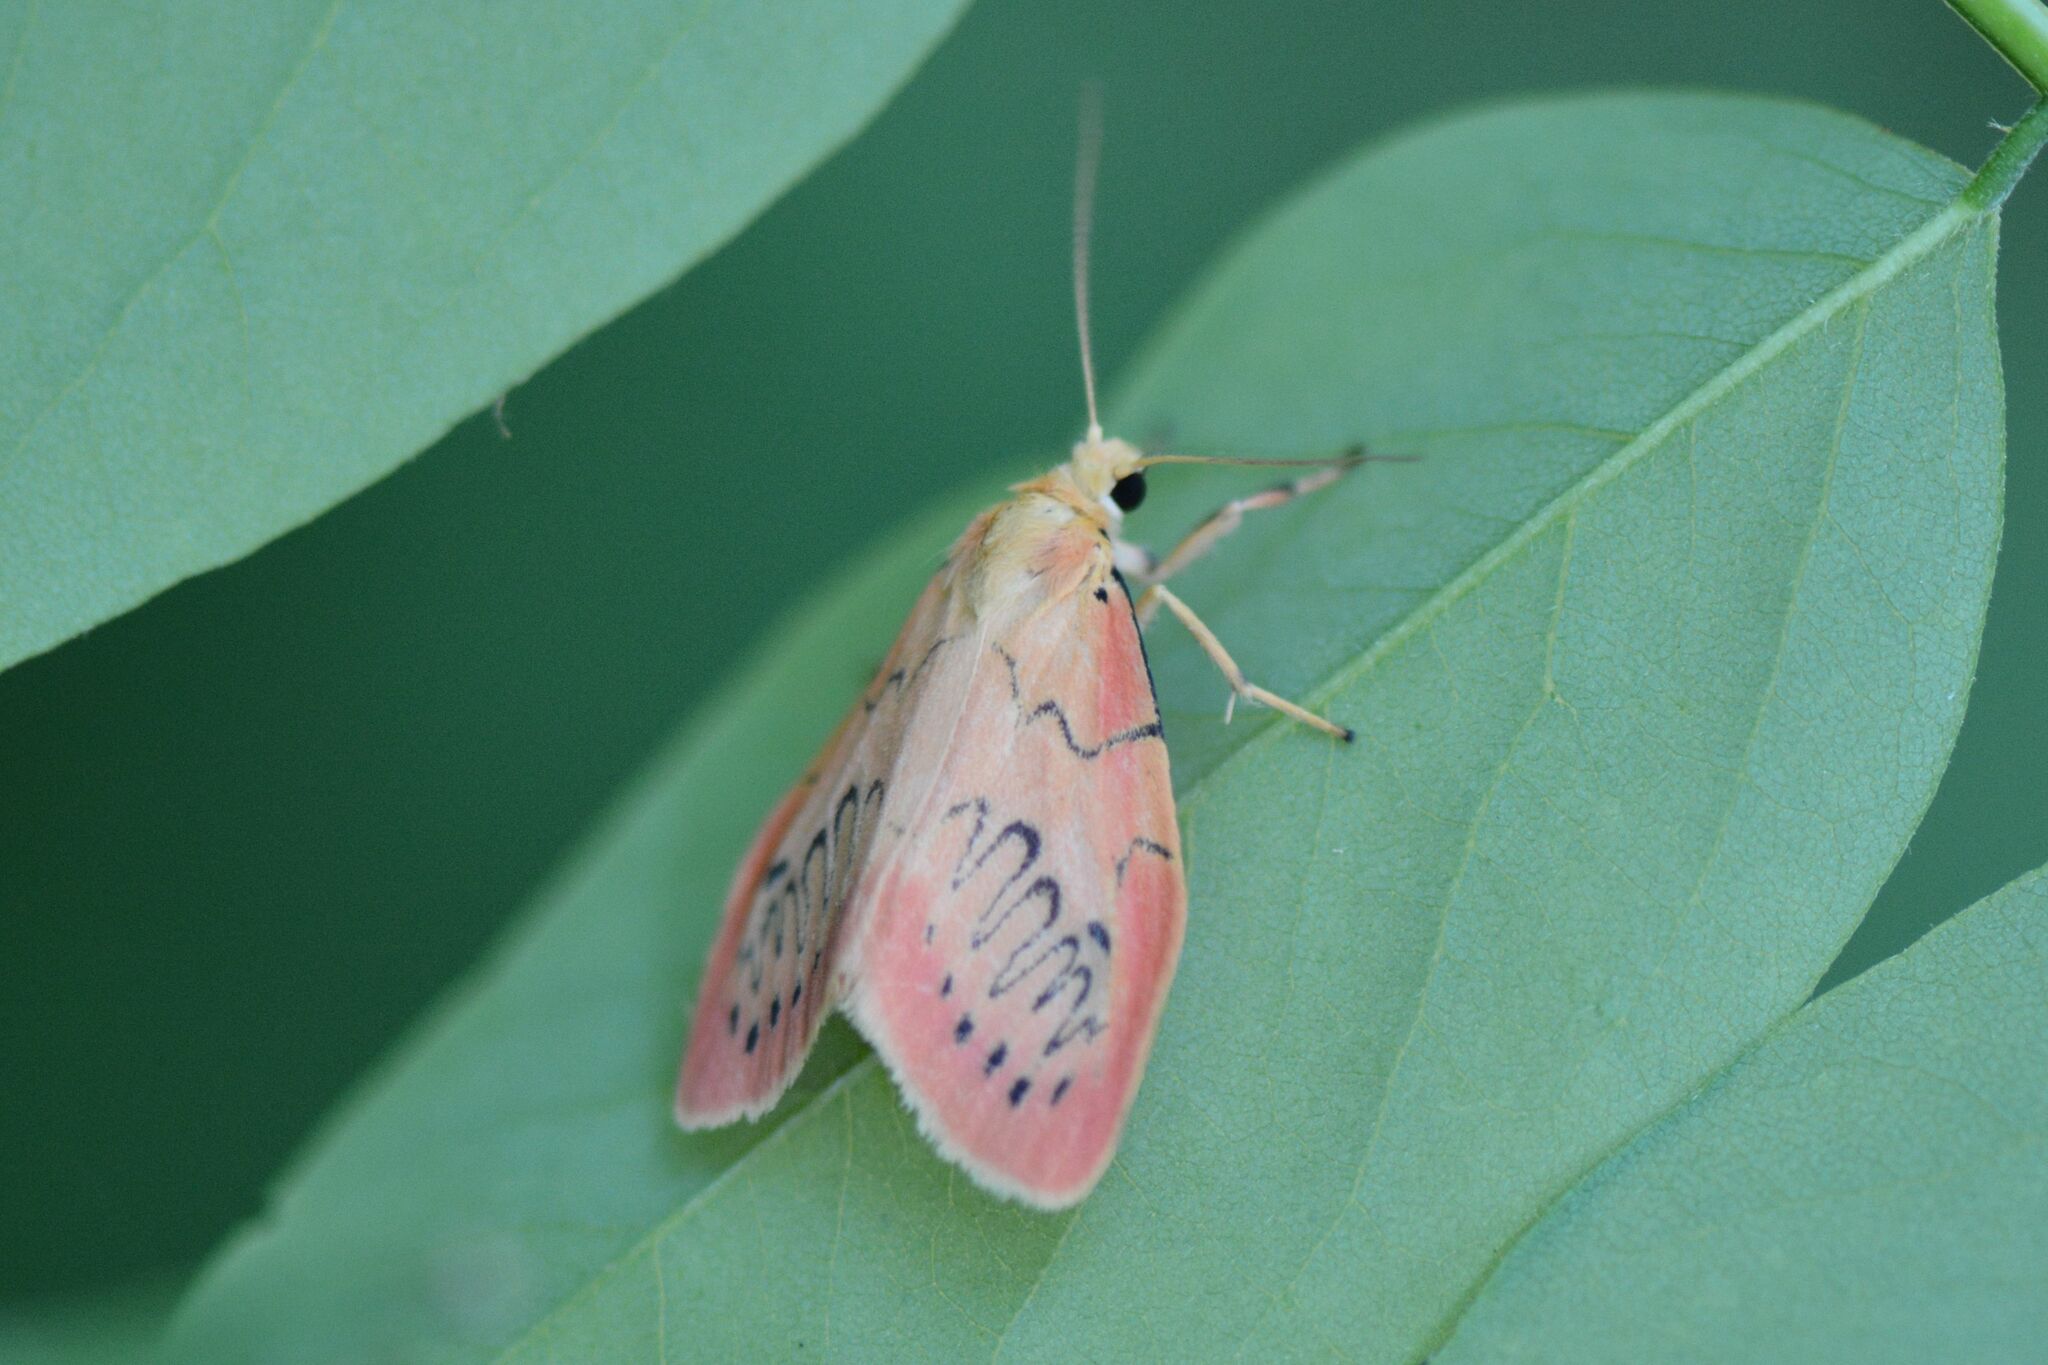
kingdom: Animalia
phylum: Arthropoda
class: Insecta
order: Lepidoptera
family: Erebidae
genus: Miltochrista
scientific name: Miltochrista miniata
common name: Rosy footman
